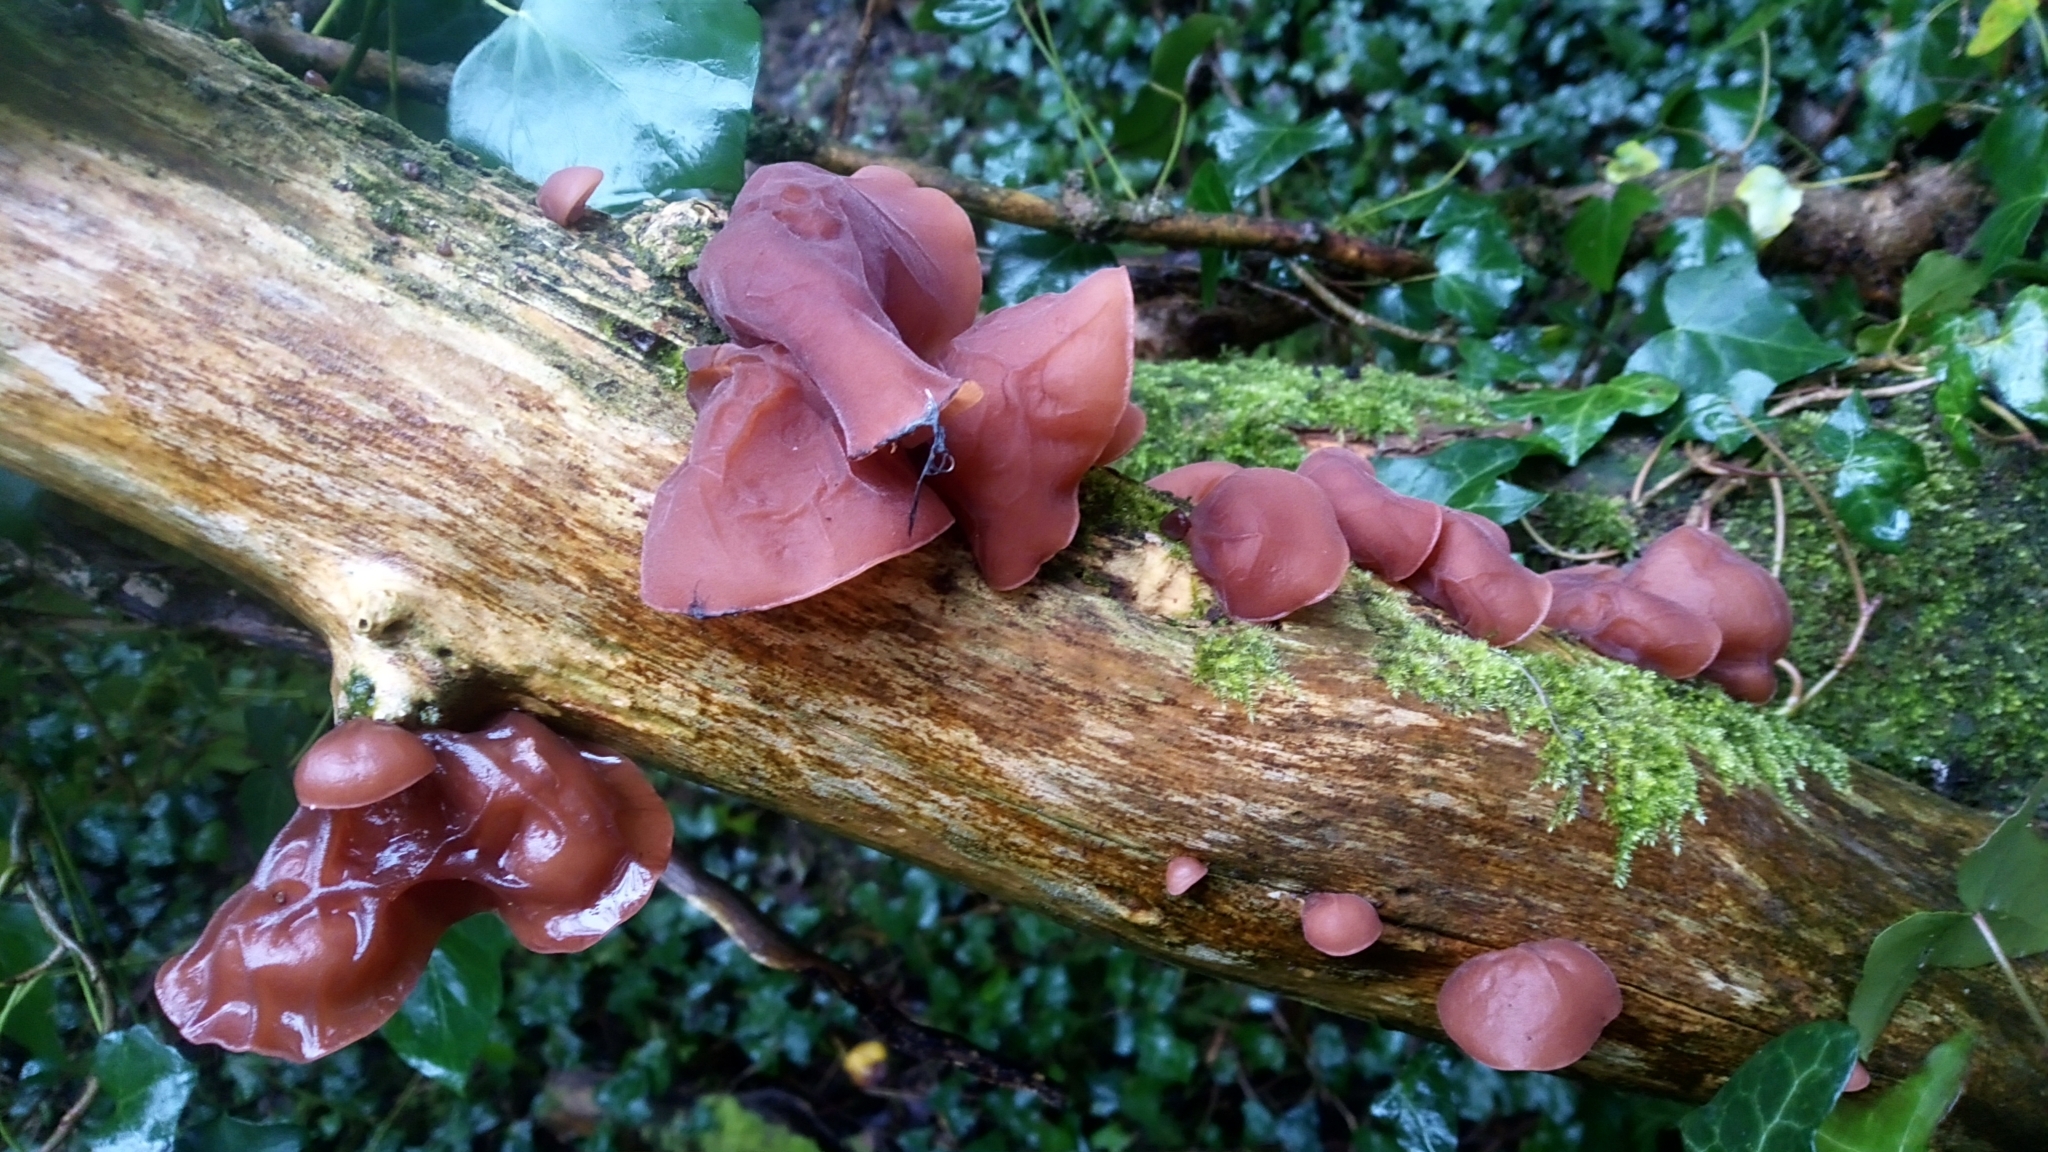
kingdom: Fungi
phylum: Basidiomycota
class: Agaricomycetes
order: Auriculariales
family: Auriculariaceae
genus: Auricularia
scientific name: Auricularia auricula-judae
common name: Jelly ear
